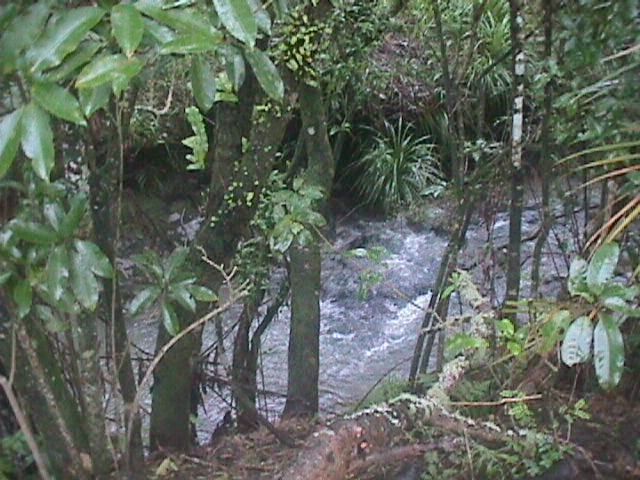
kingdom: Plantae
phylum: Tracheophyta
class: Polypodiopsida
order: Polypodiales
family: Polypodiaceae
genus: Pyrrosia
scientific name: Pyrrosia eleagnifolia
